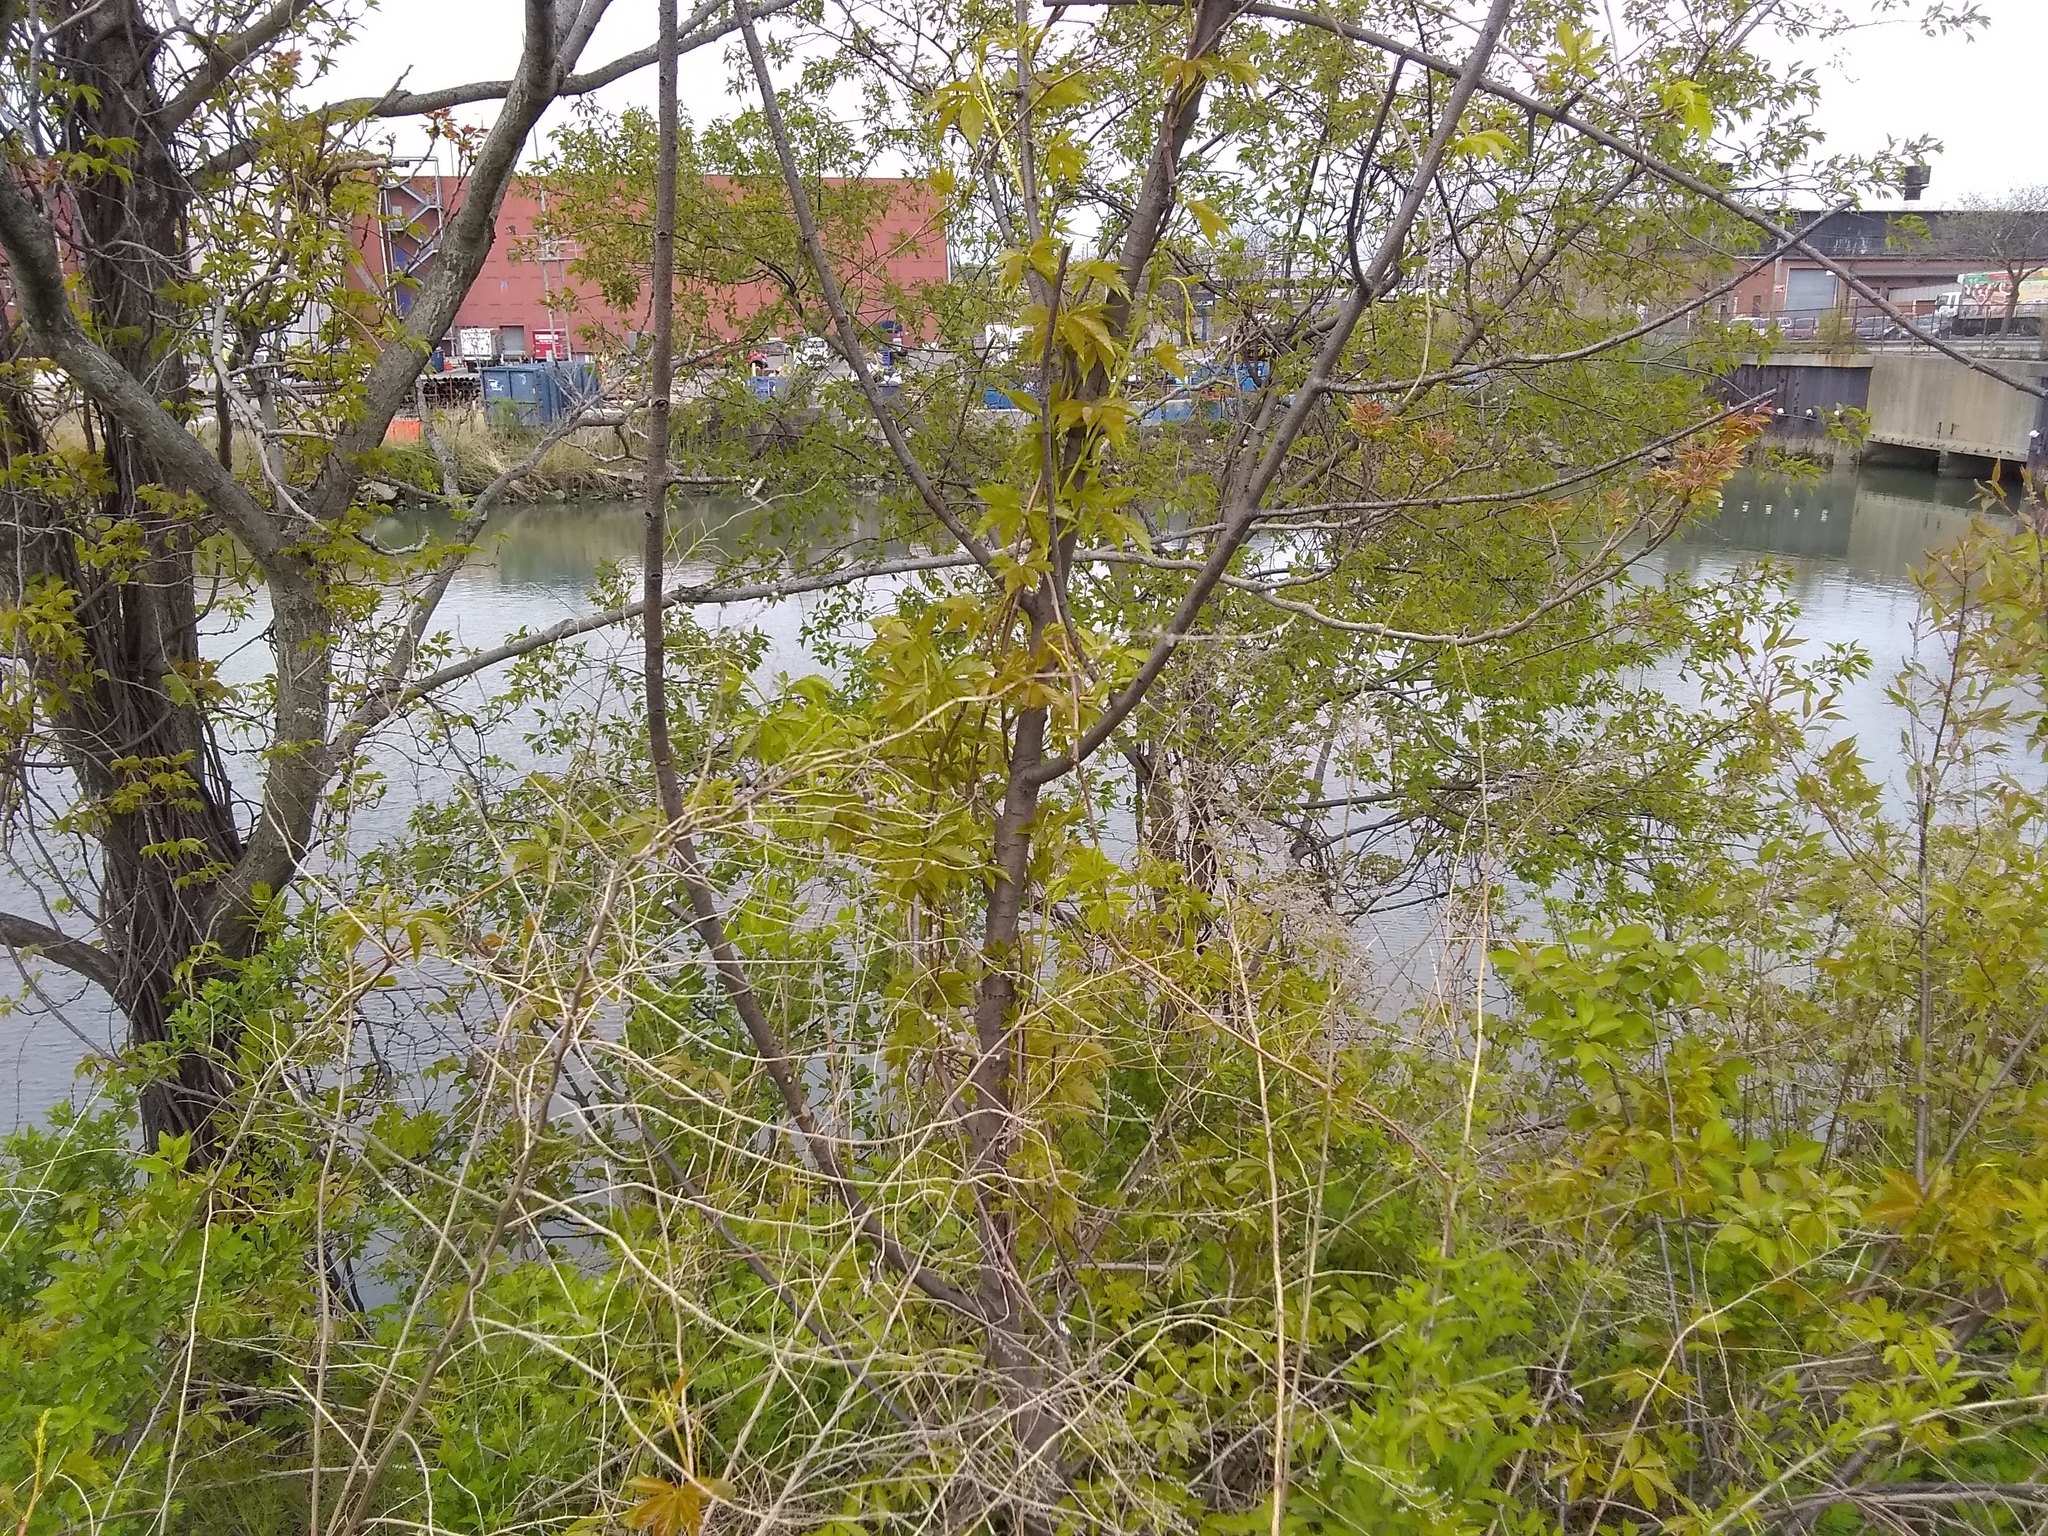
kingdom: Plantae
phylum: Tracheophyta
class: Magnoliopsida
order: Sapindales
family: Simaroubaceae
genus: Ailanthus
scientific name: Ailanthus altissima
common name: Tree-of-heaven
